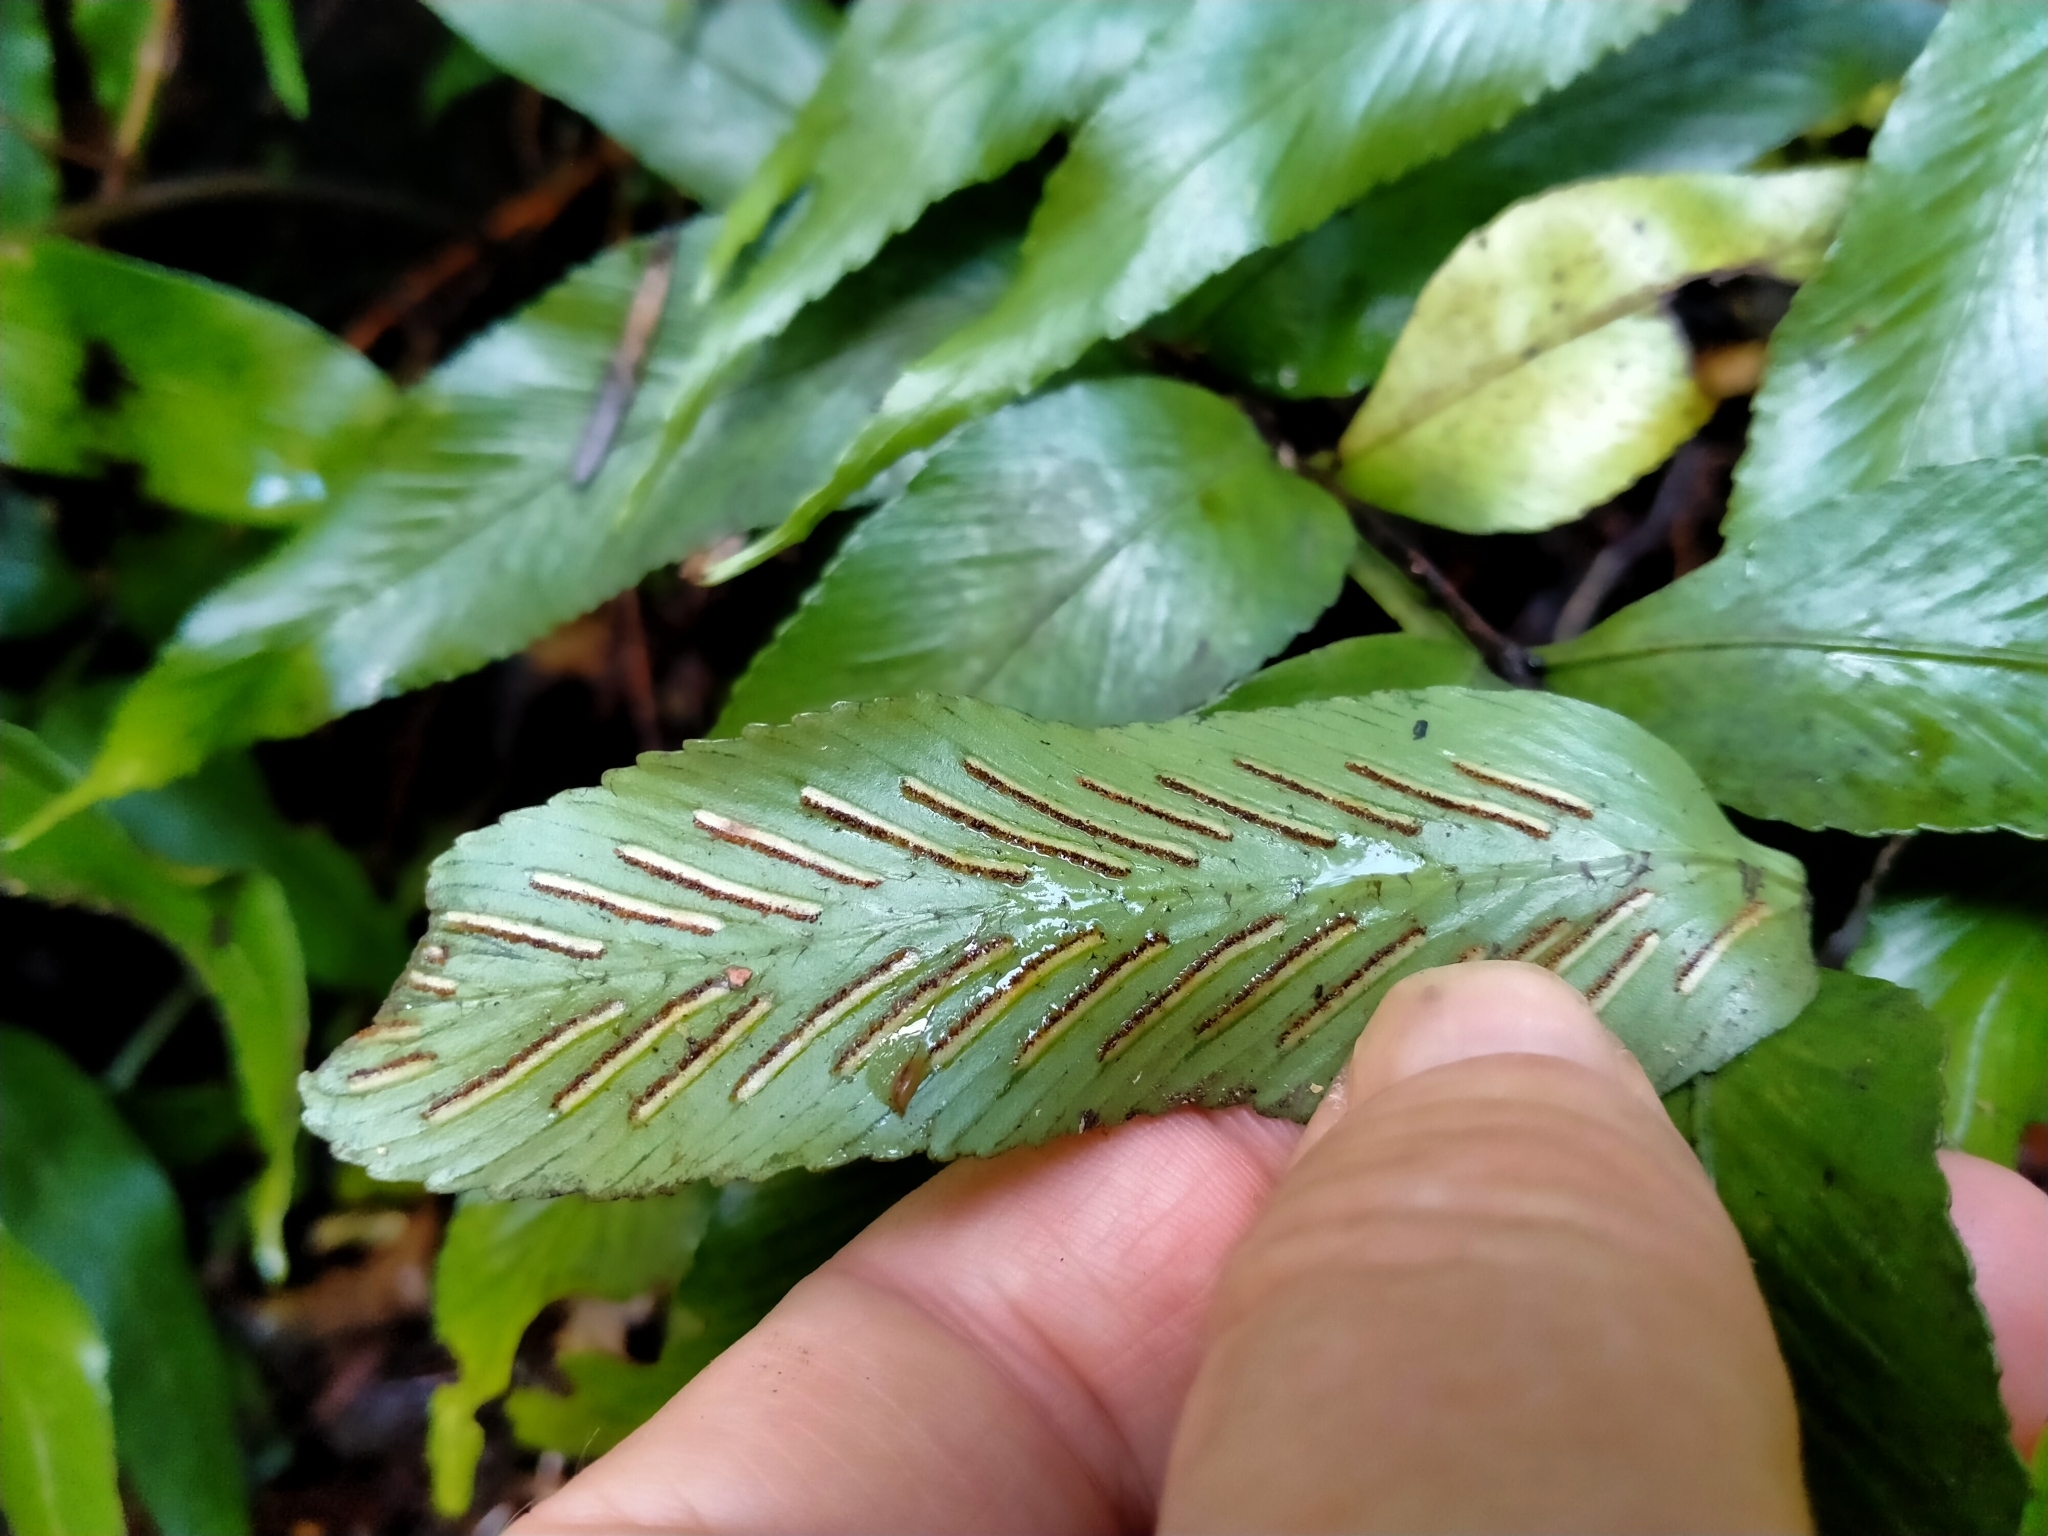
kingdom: Plantae
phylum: Tracheophyta
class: Polypodiopsida
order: Polypodiales
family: Aspleniaceae
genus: Asplenium
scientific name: Asplenium oblongifolium
